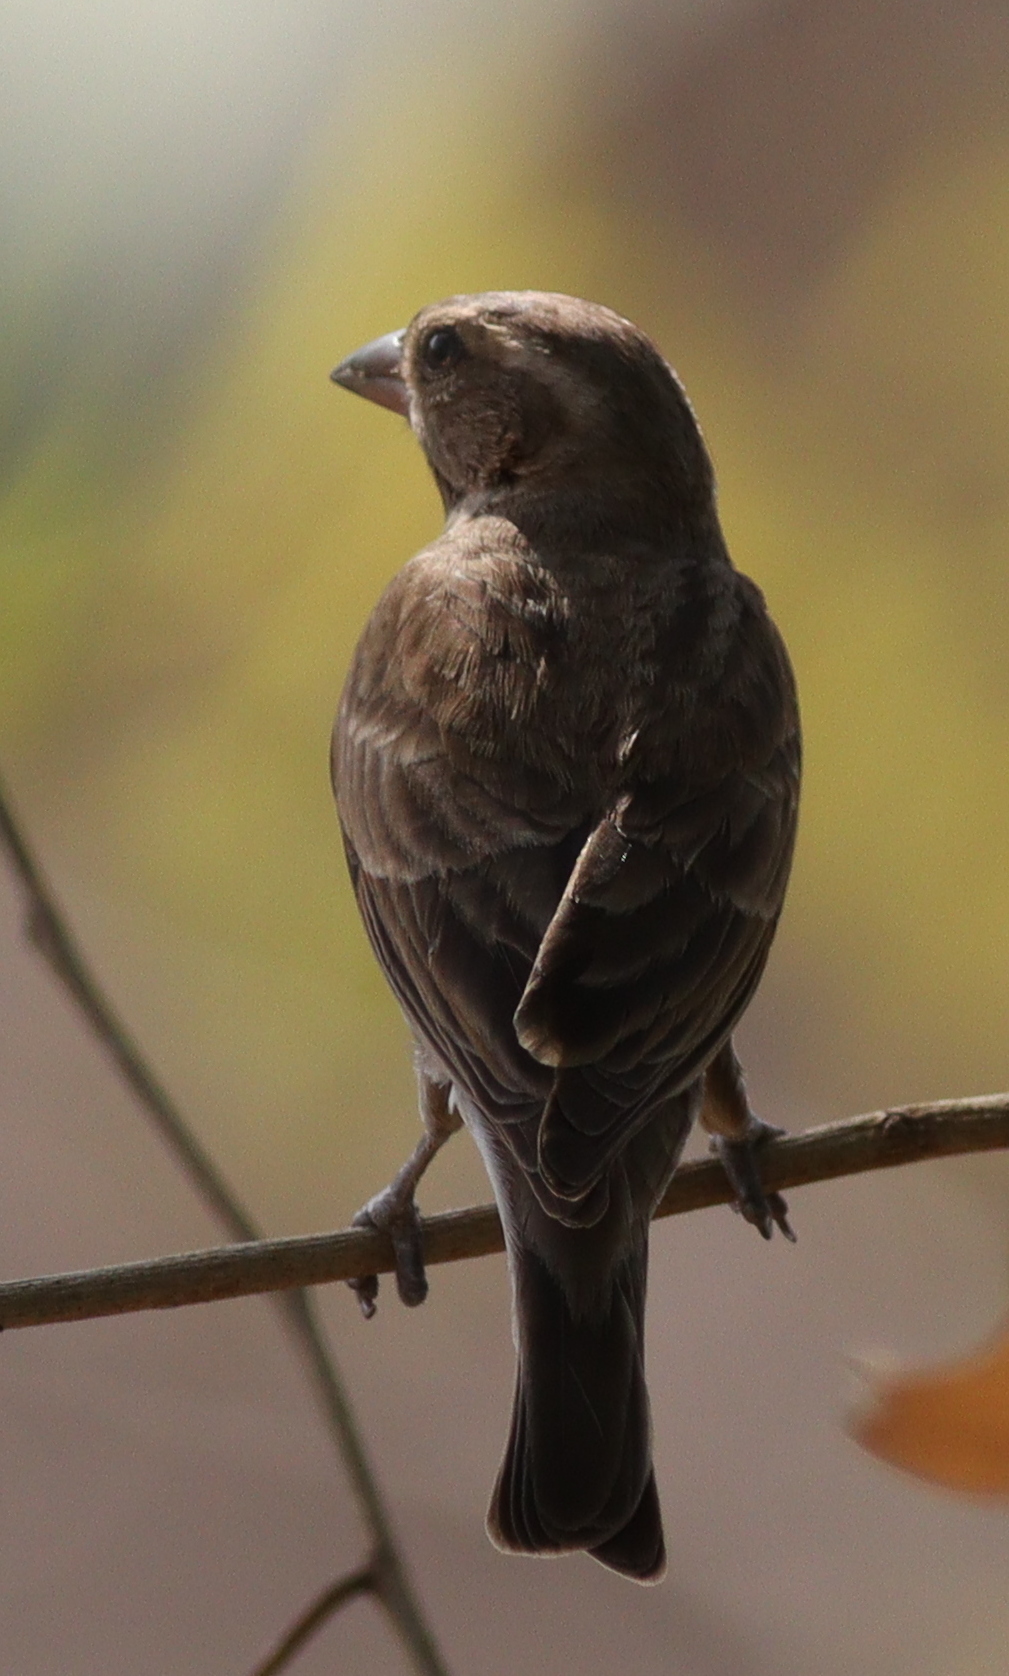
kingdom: Animalia
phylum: Chordata
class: Aves
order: Passeriformes
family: Passeridae
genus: Gymnoris
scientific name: Gymnoris dentata
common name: Bush petronia
